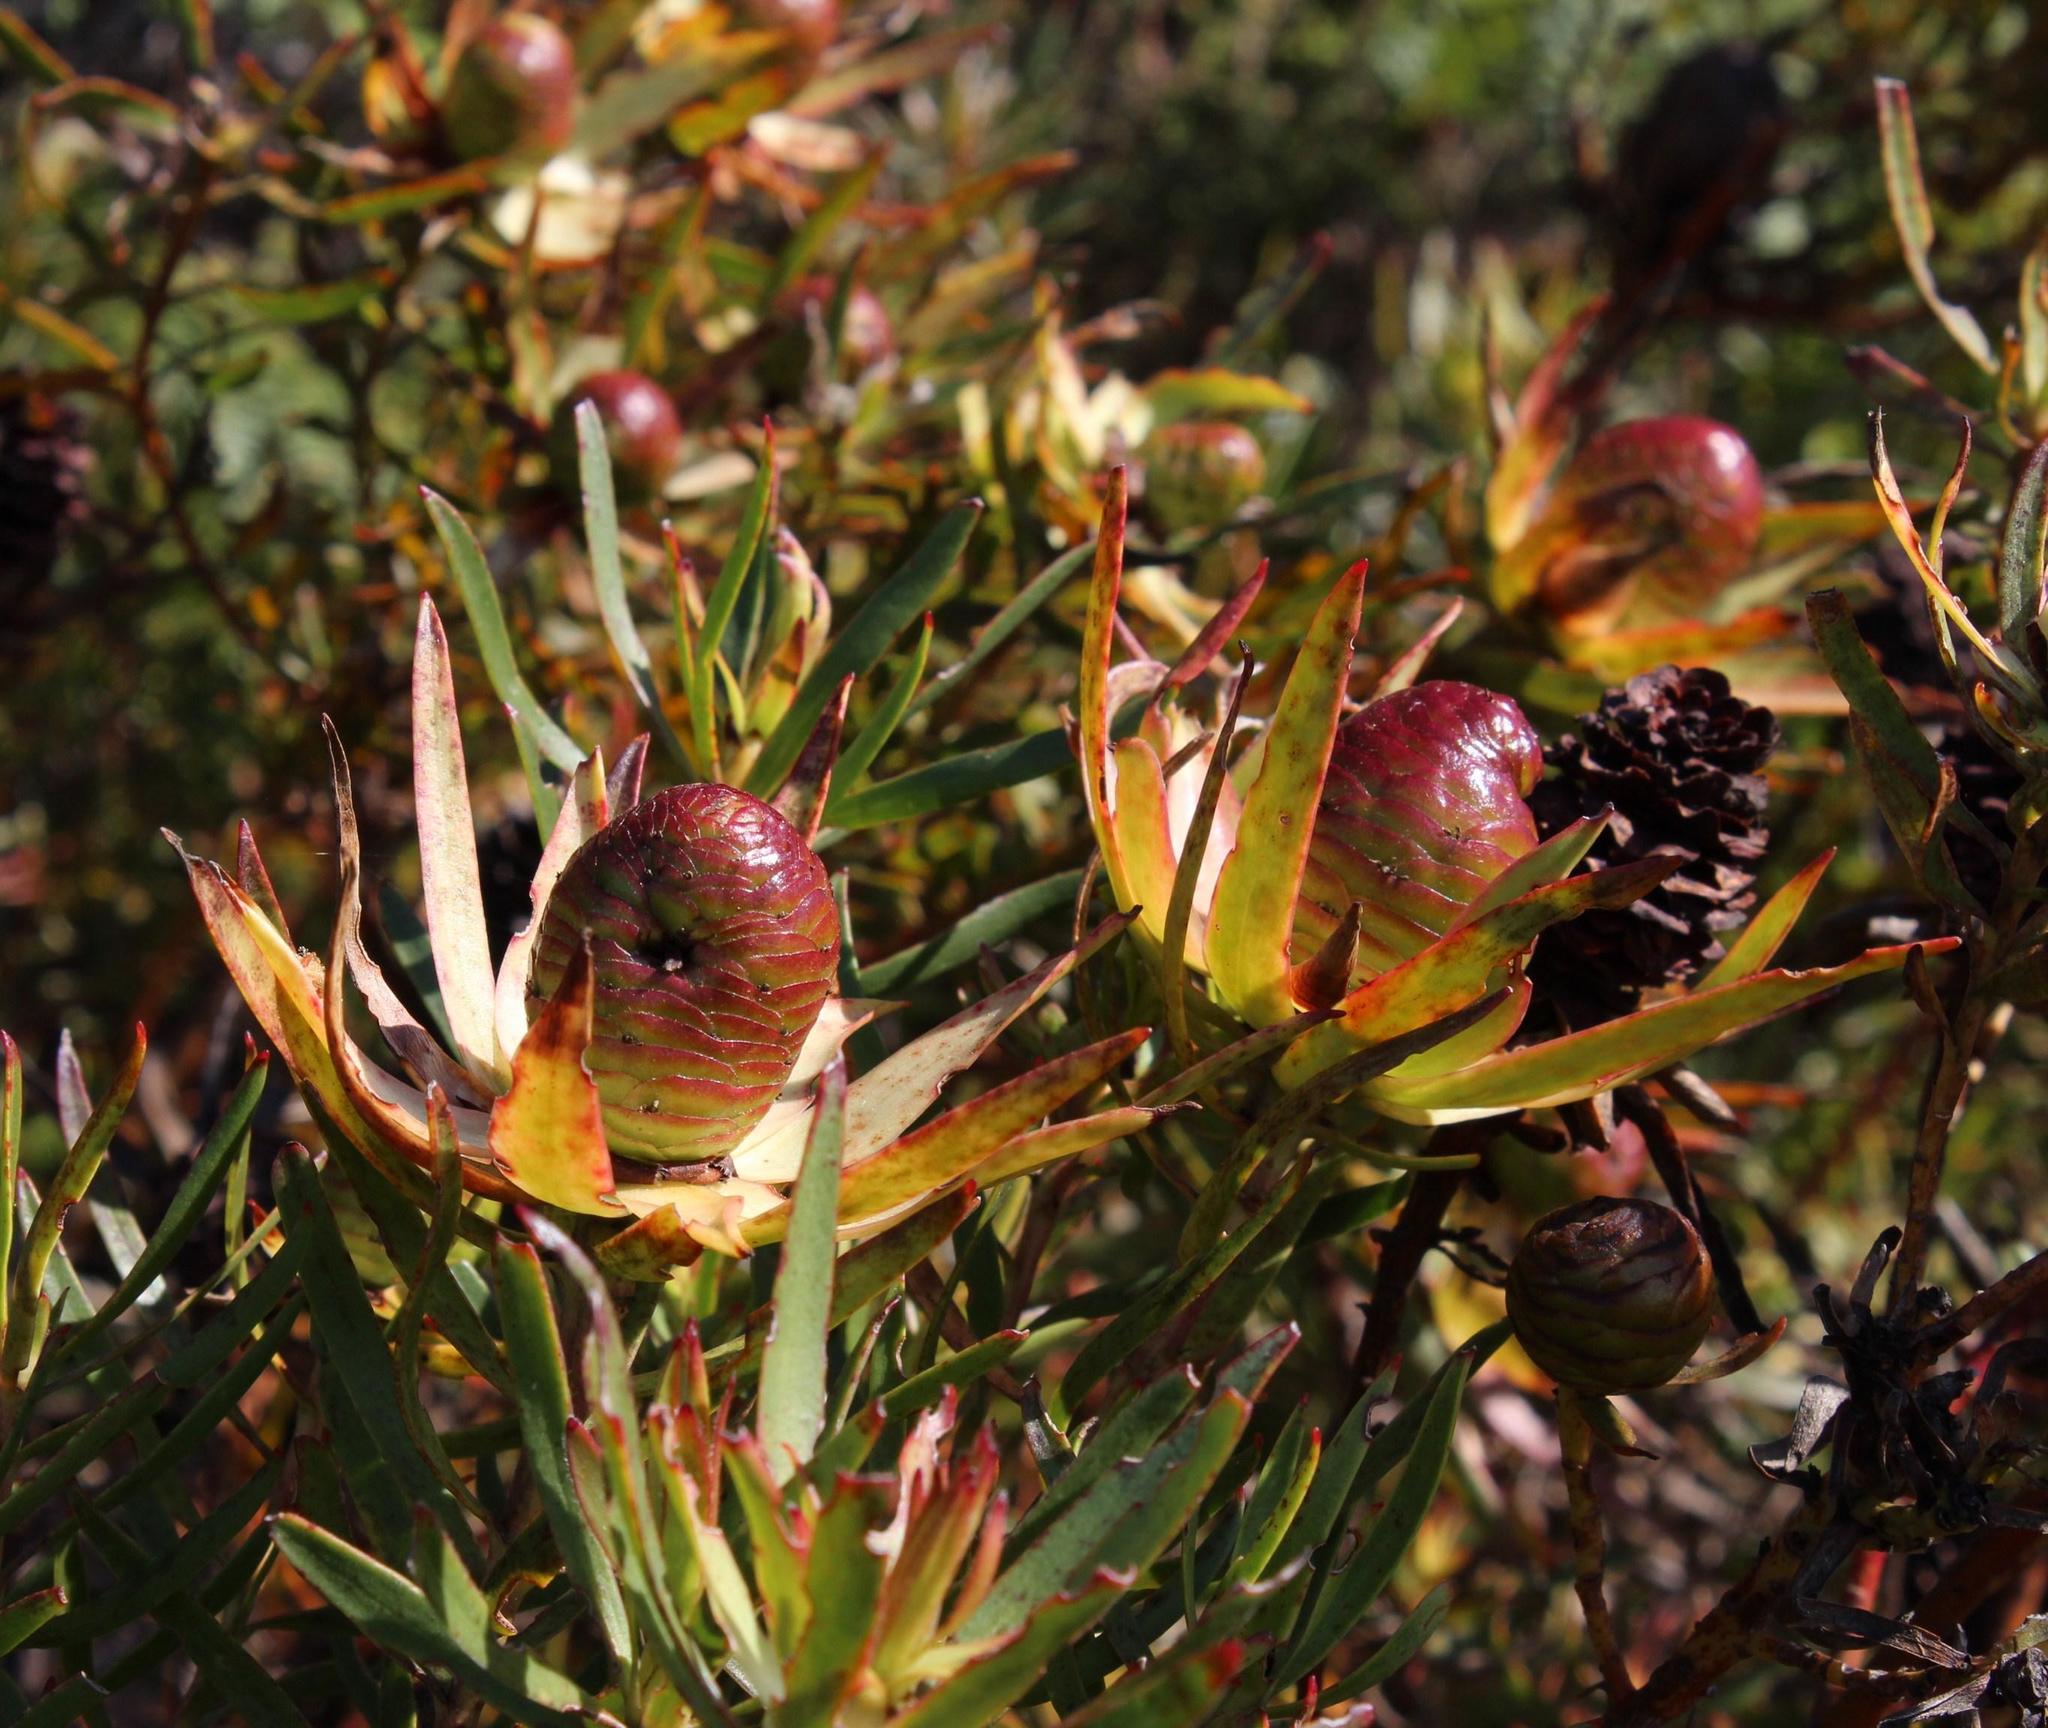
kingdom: Plantae
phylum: Tracheophyta
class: Magnoliopsida
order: Proteales
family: Proteaceae
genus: Leucadendron
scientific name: Leucadendron spissifolium
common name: Spear-leaf conebush
